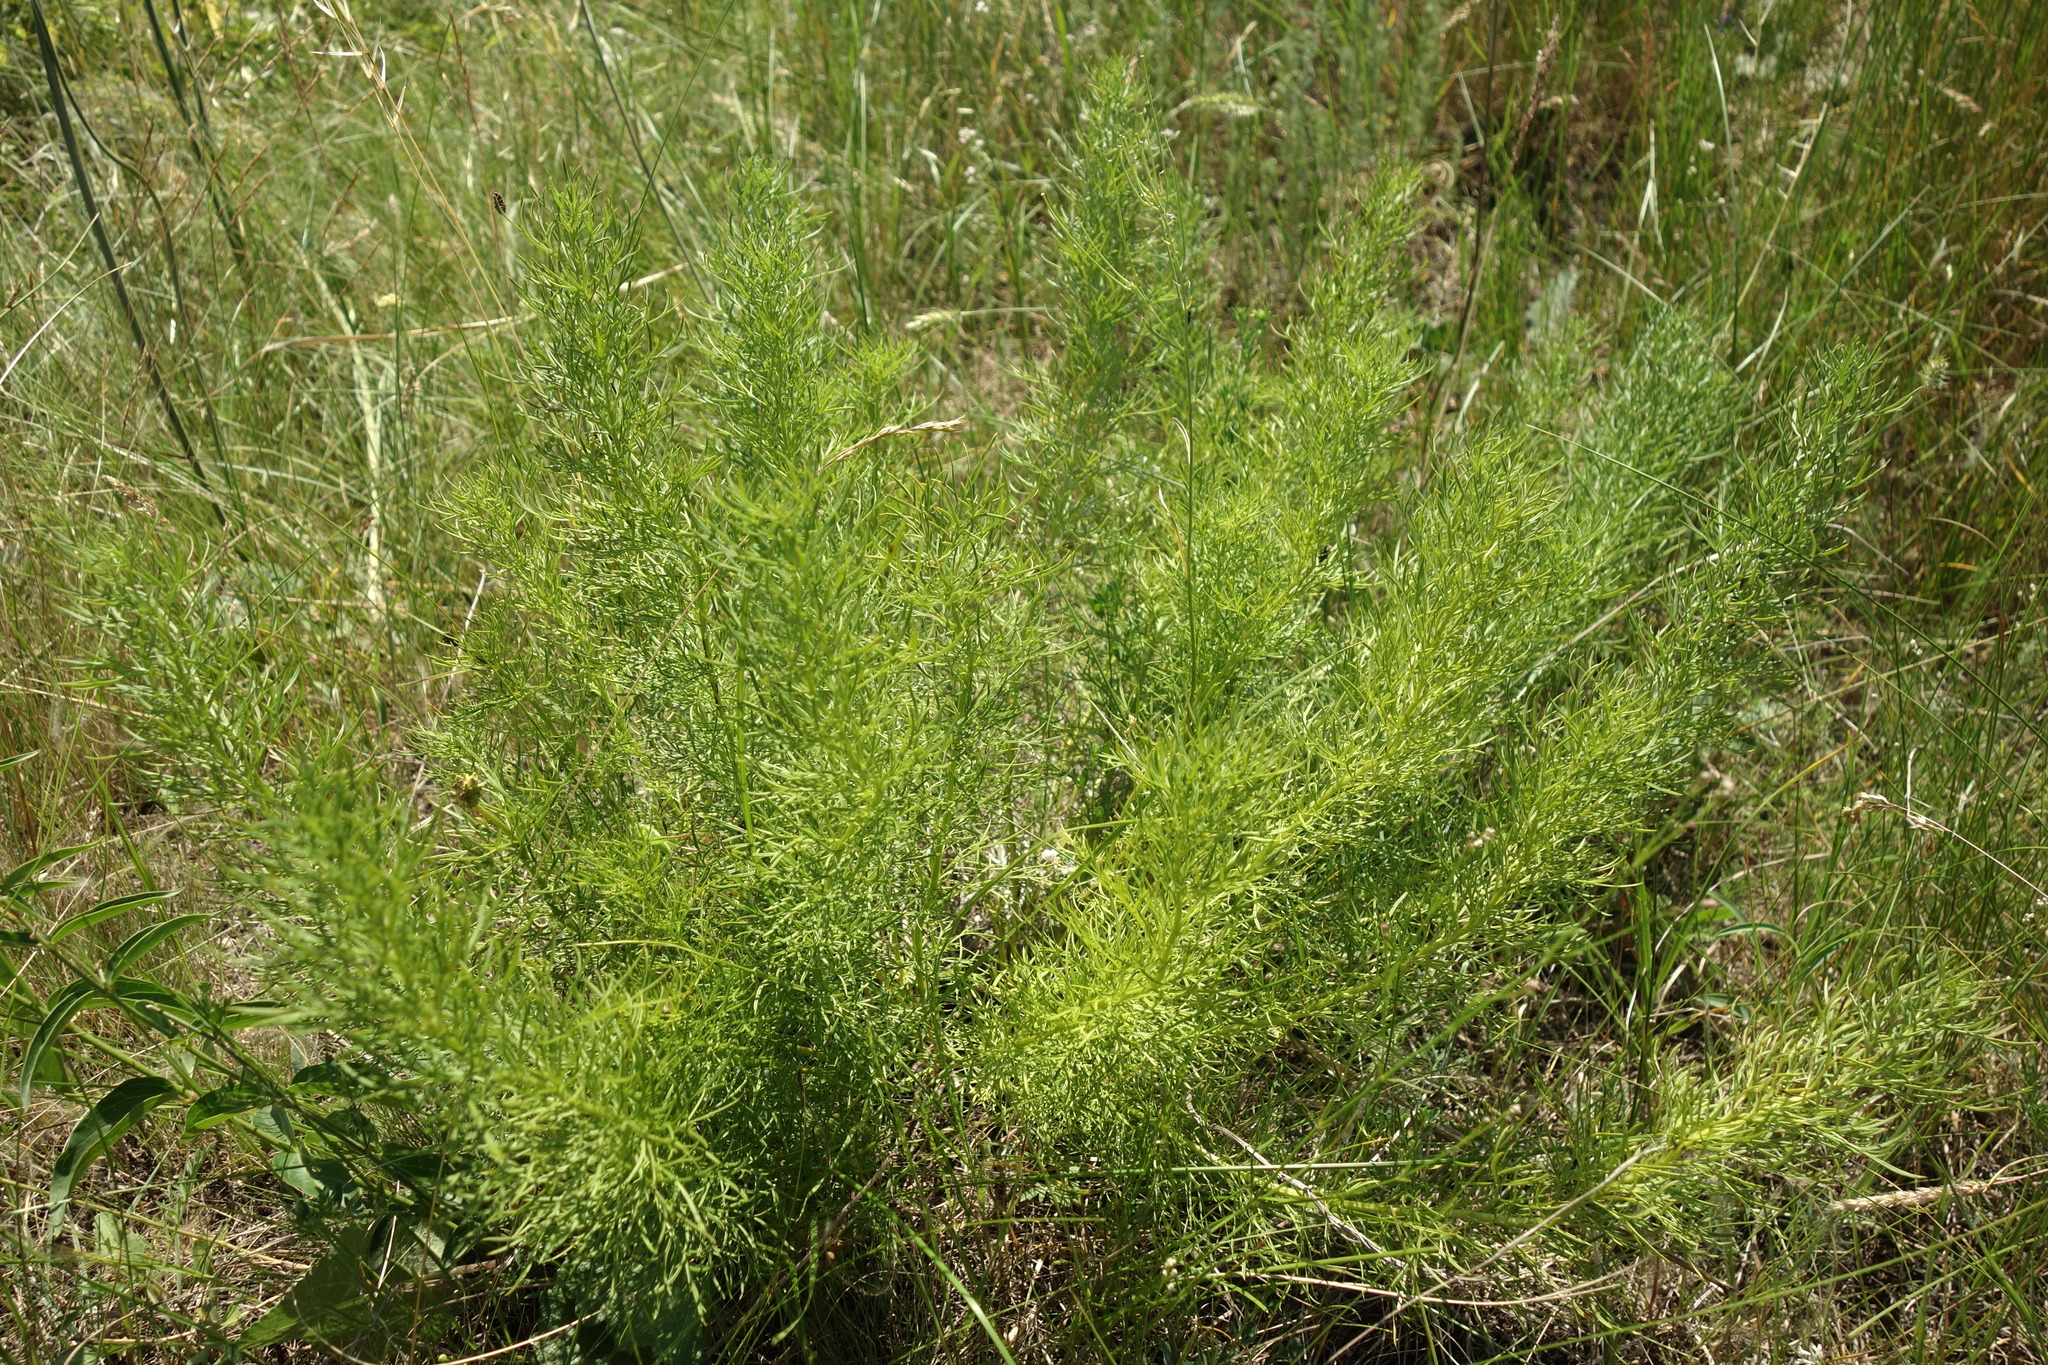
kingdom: Plantae
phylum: Tracheophyta
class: Magnoliopsida
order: Ranunculales
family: Ranunculaceae
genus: Adonis
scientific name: Adonis vernalis
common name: Yellow pheasants-eye
